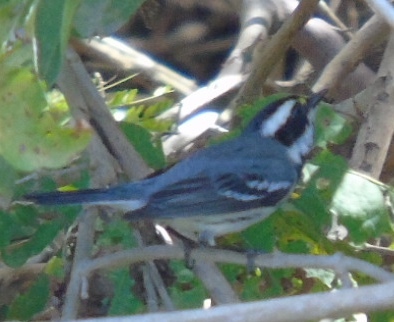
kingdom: Animalia
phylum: Chordata
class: Aves
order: Passeriformes
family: Parulidae
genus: Setophaga
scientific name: Setophaga nigrescens
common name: Black-throated gray warbler
